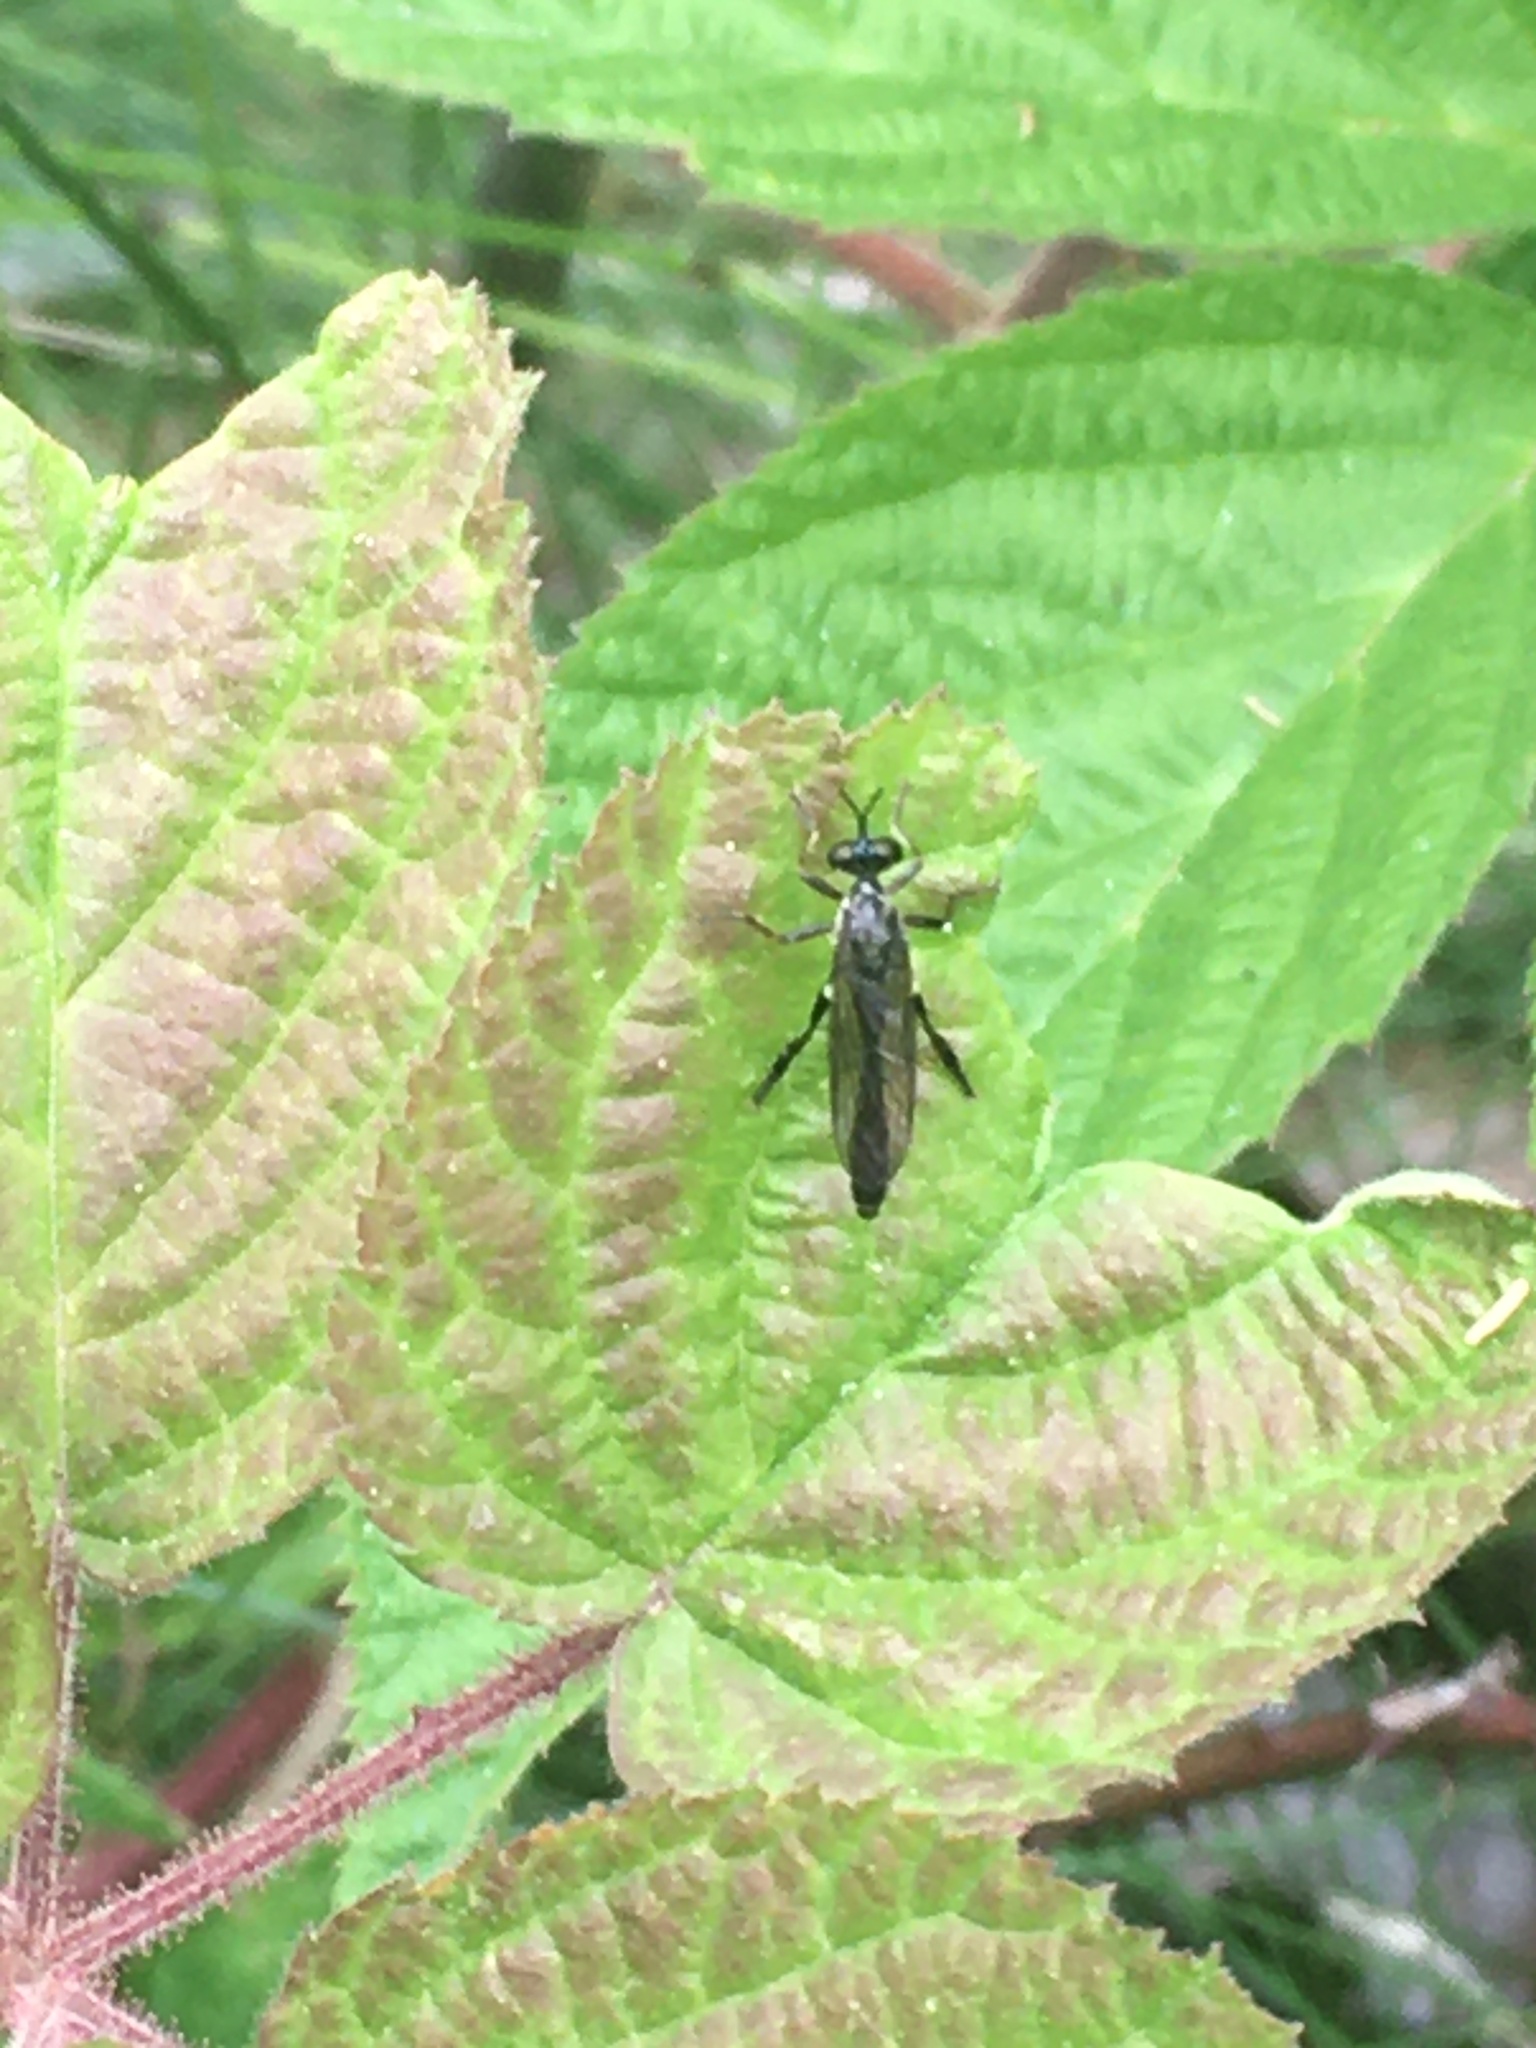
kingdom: Animalia
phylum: Arthropoda
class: Insecta
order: Diptera
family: Asilidae
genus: Dioctria
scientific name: Dioctria hyalipennis
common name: Stripe-legged robberfly
